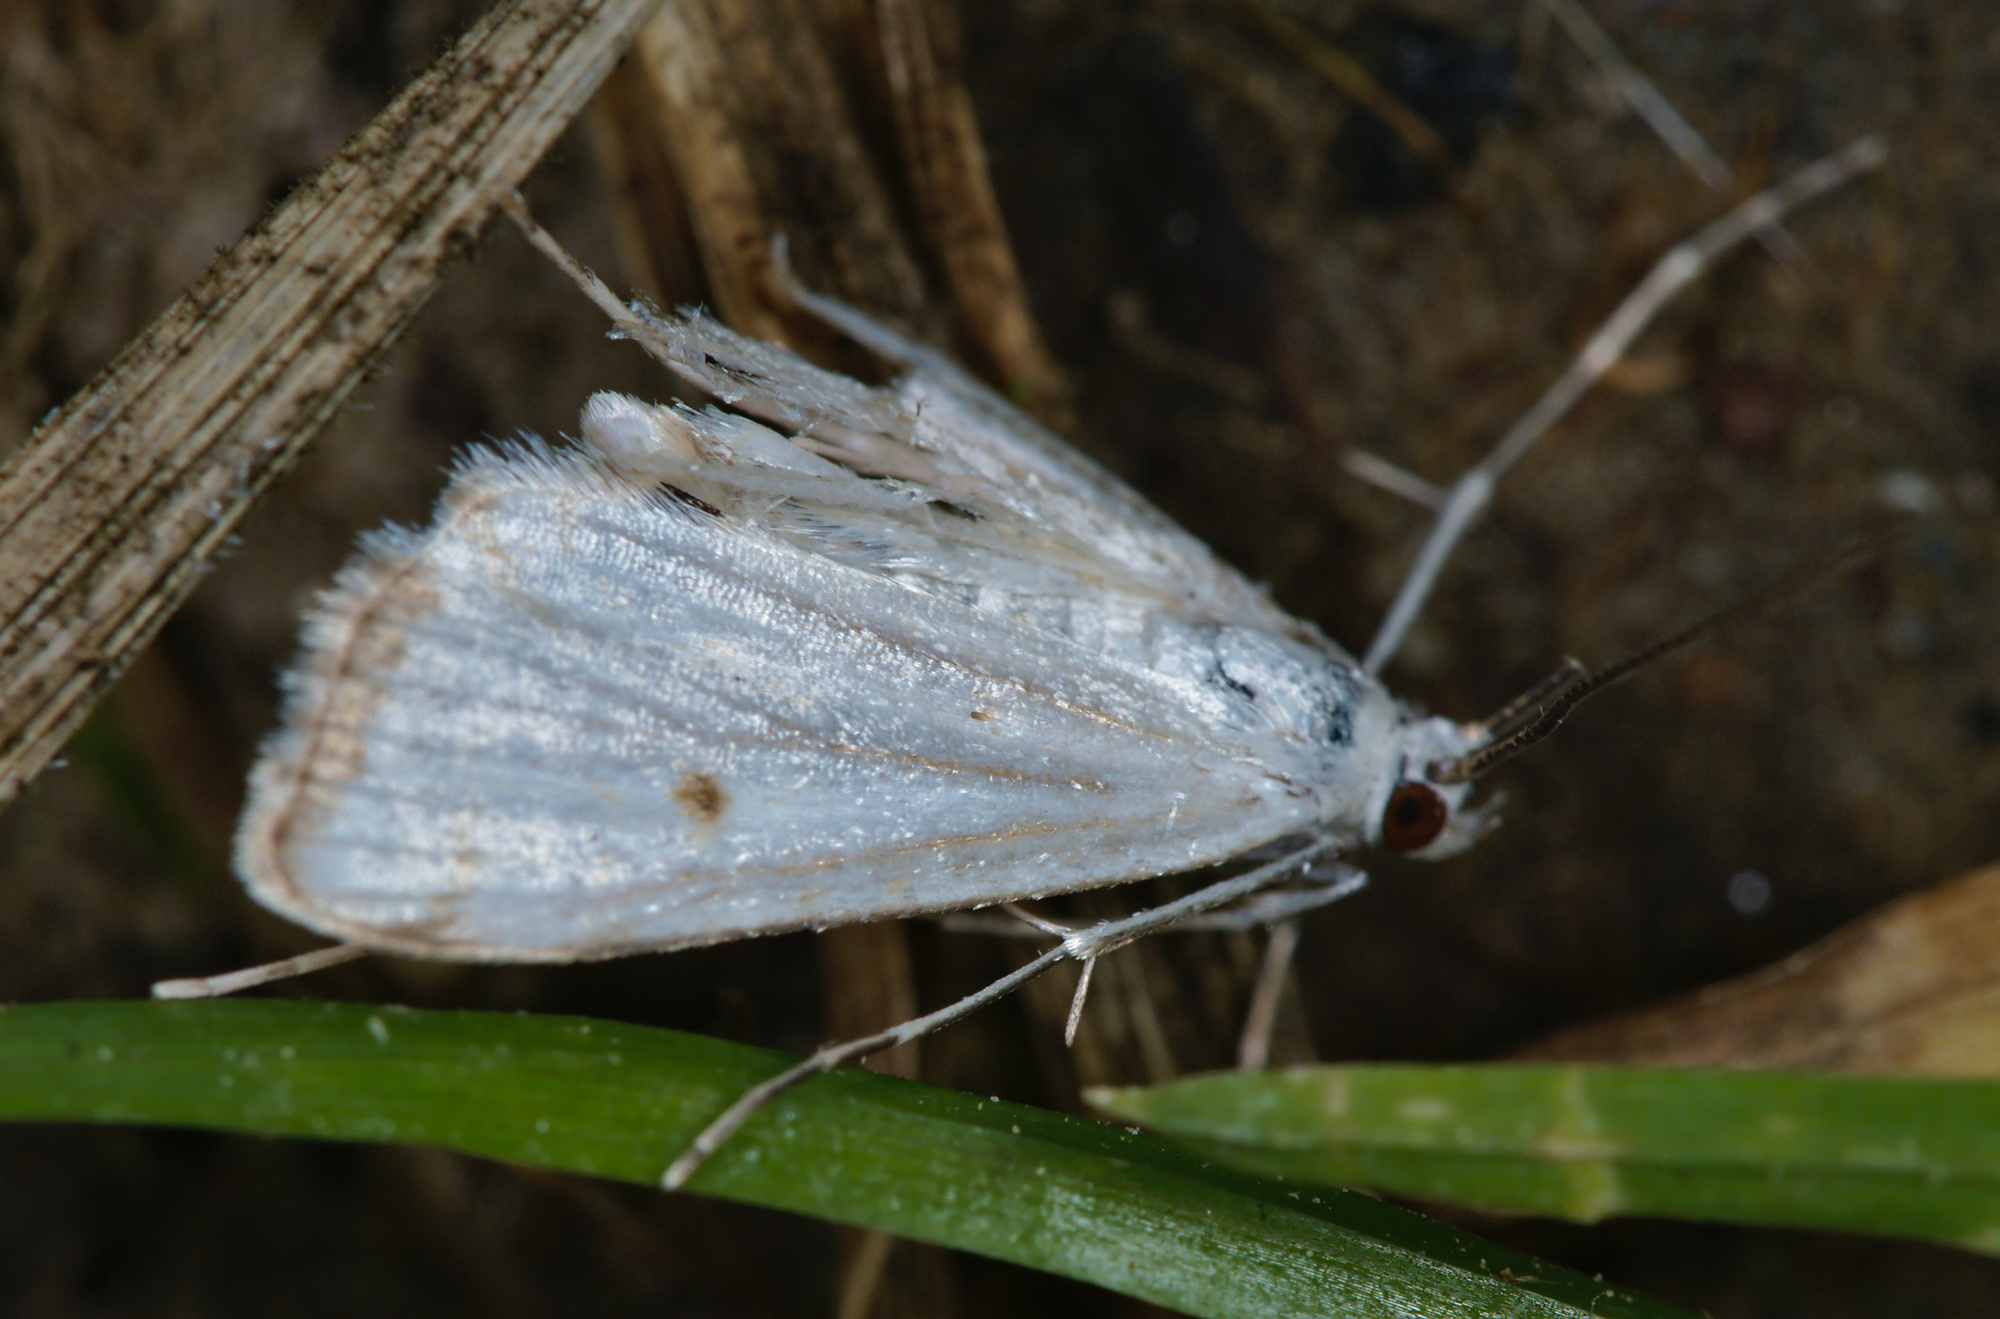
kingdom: Animalia
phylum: Arthropoda
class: Insecta
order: Lepidoptera
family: Crambidae
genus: Cataclysta
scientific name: Cataclysta lemnata
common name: Small china-mark
